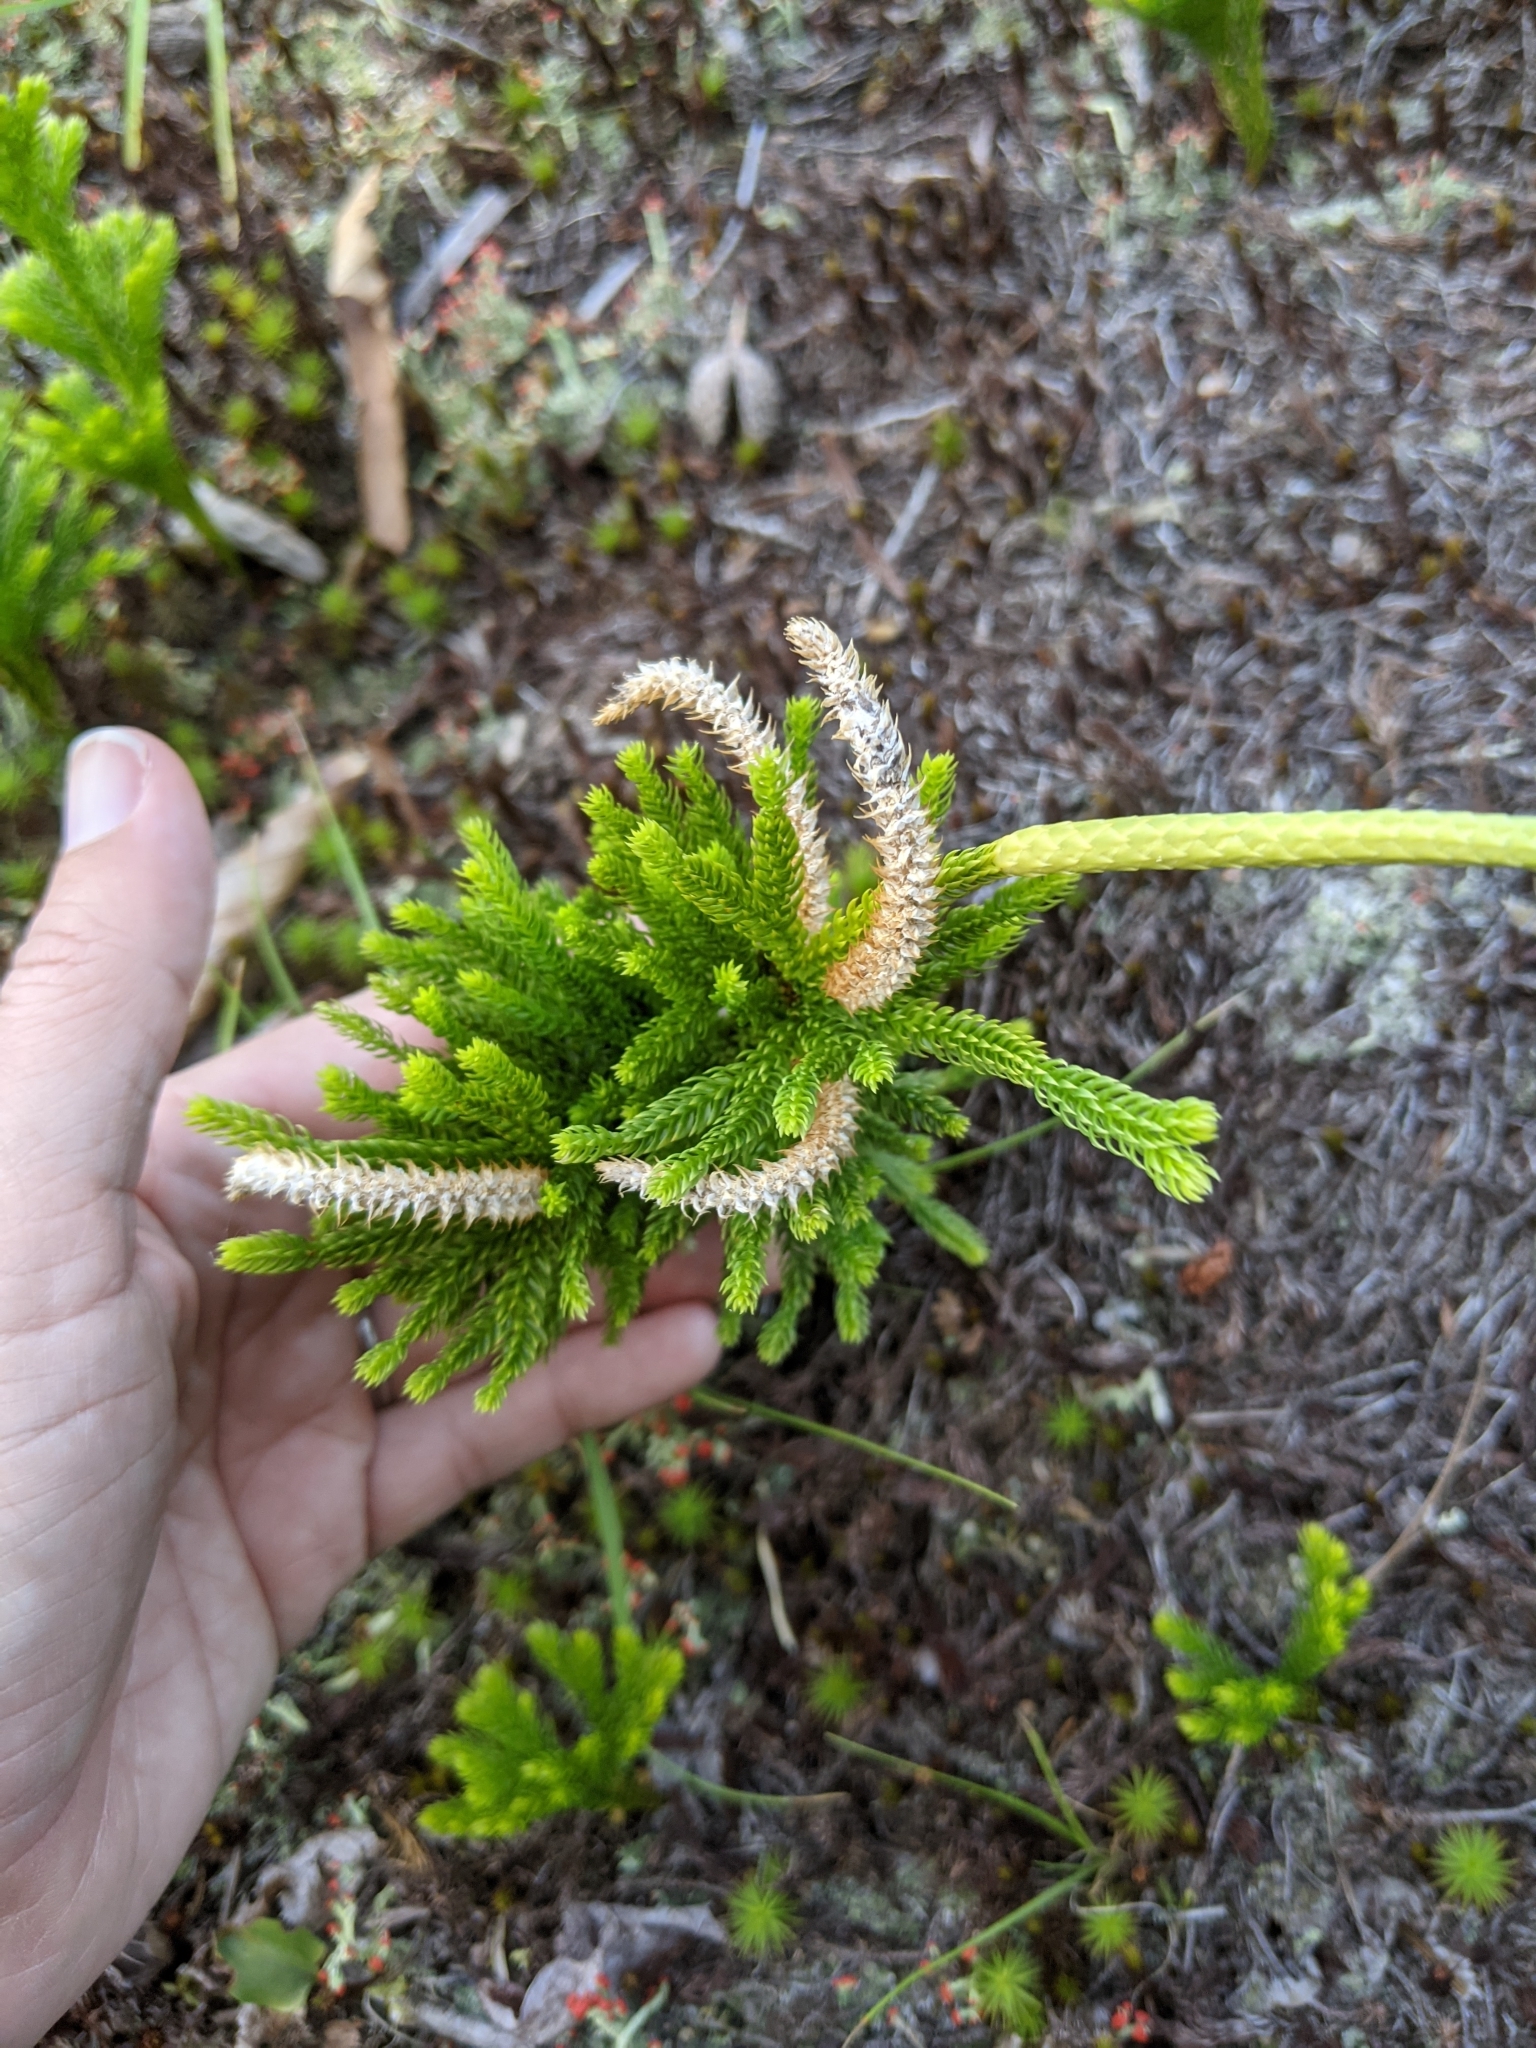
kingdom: Plantae
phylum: Tracheophyta
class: Lycopodiopsida
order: Lycopodiales
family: Lycopodiaceae
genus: Dendrolycopodium
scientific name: Dendrolycopodium hickeyi
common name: Hickey's clubmoss
